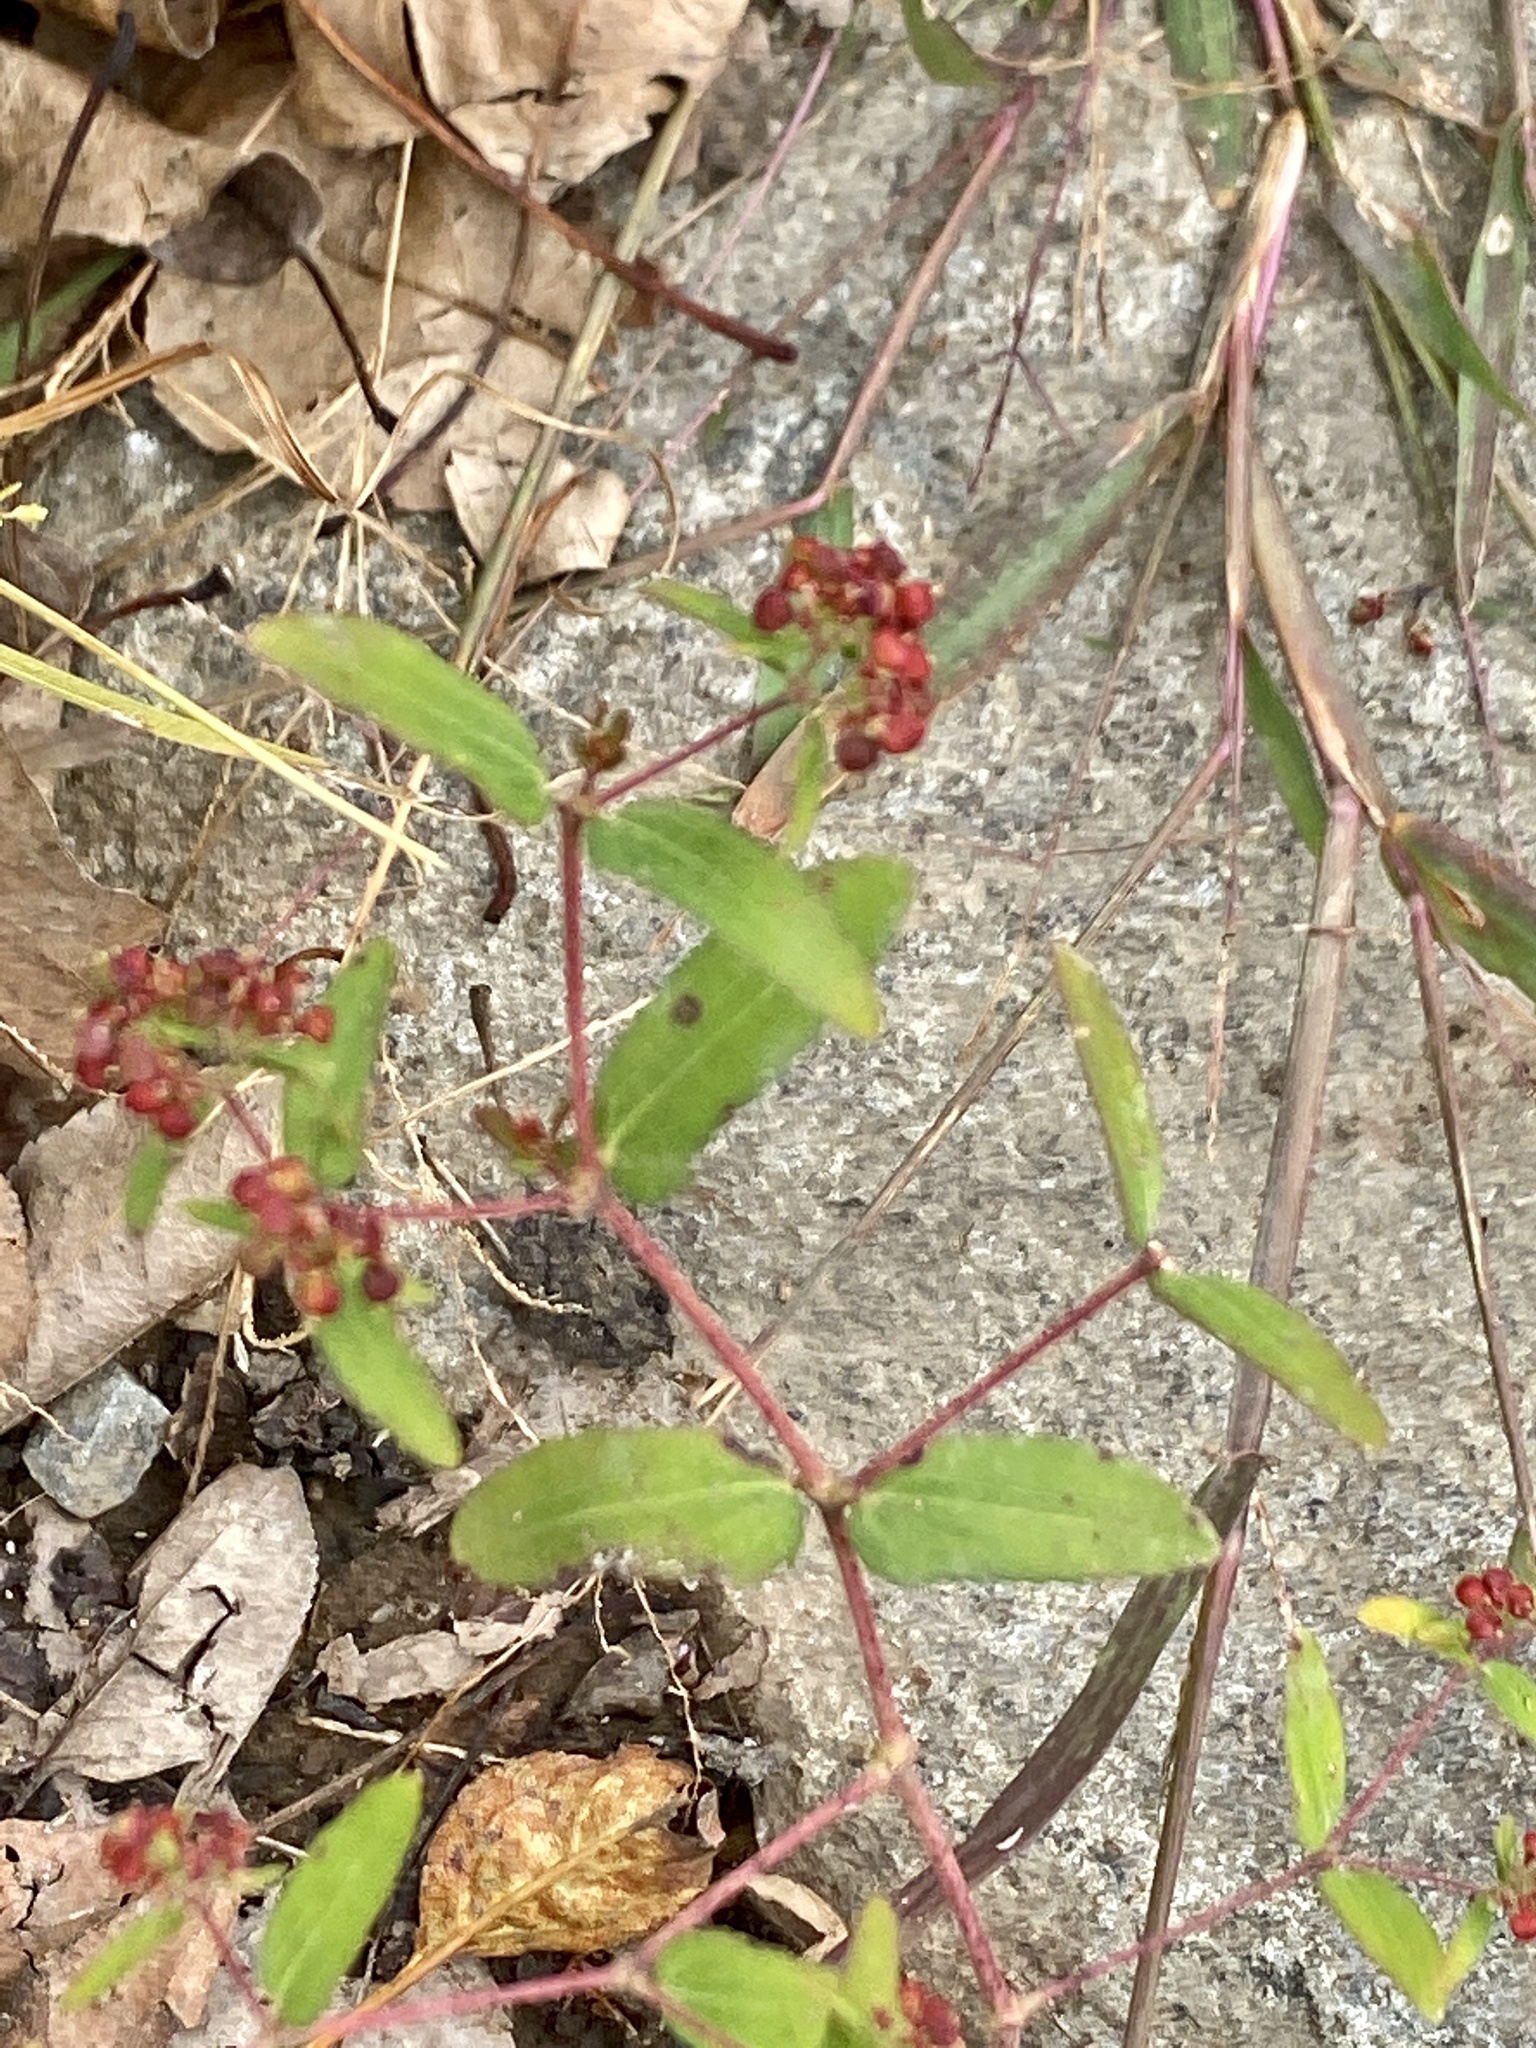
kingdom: Plantae
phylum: Tracheophyta
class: Magnoliopsida
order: Malpighiales
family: Euphorbiaceae
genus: Euphorbia
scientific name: Euphorbia nutans
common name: Eyebane
